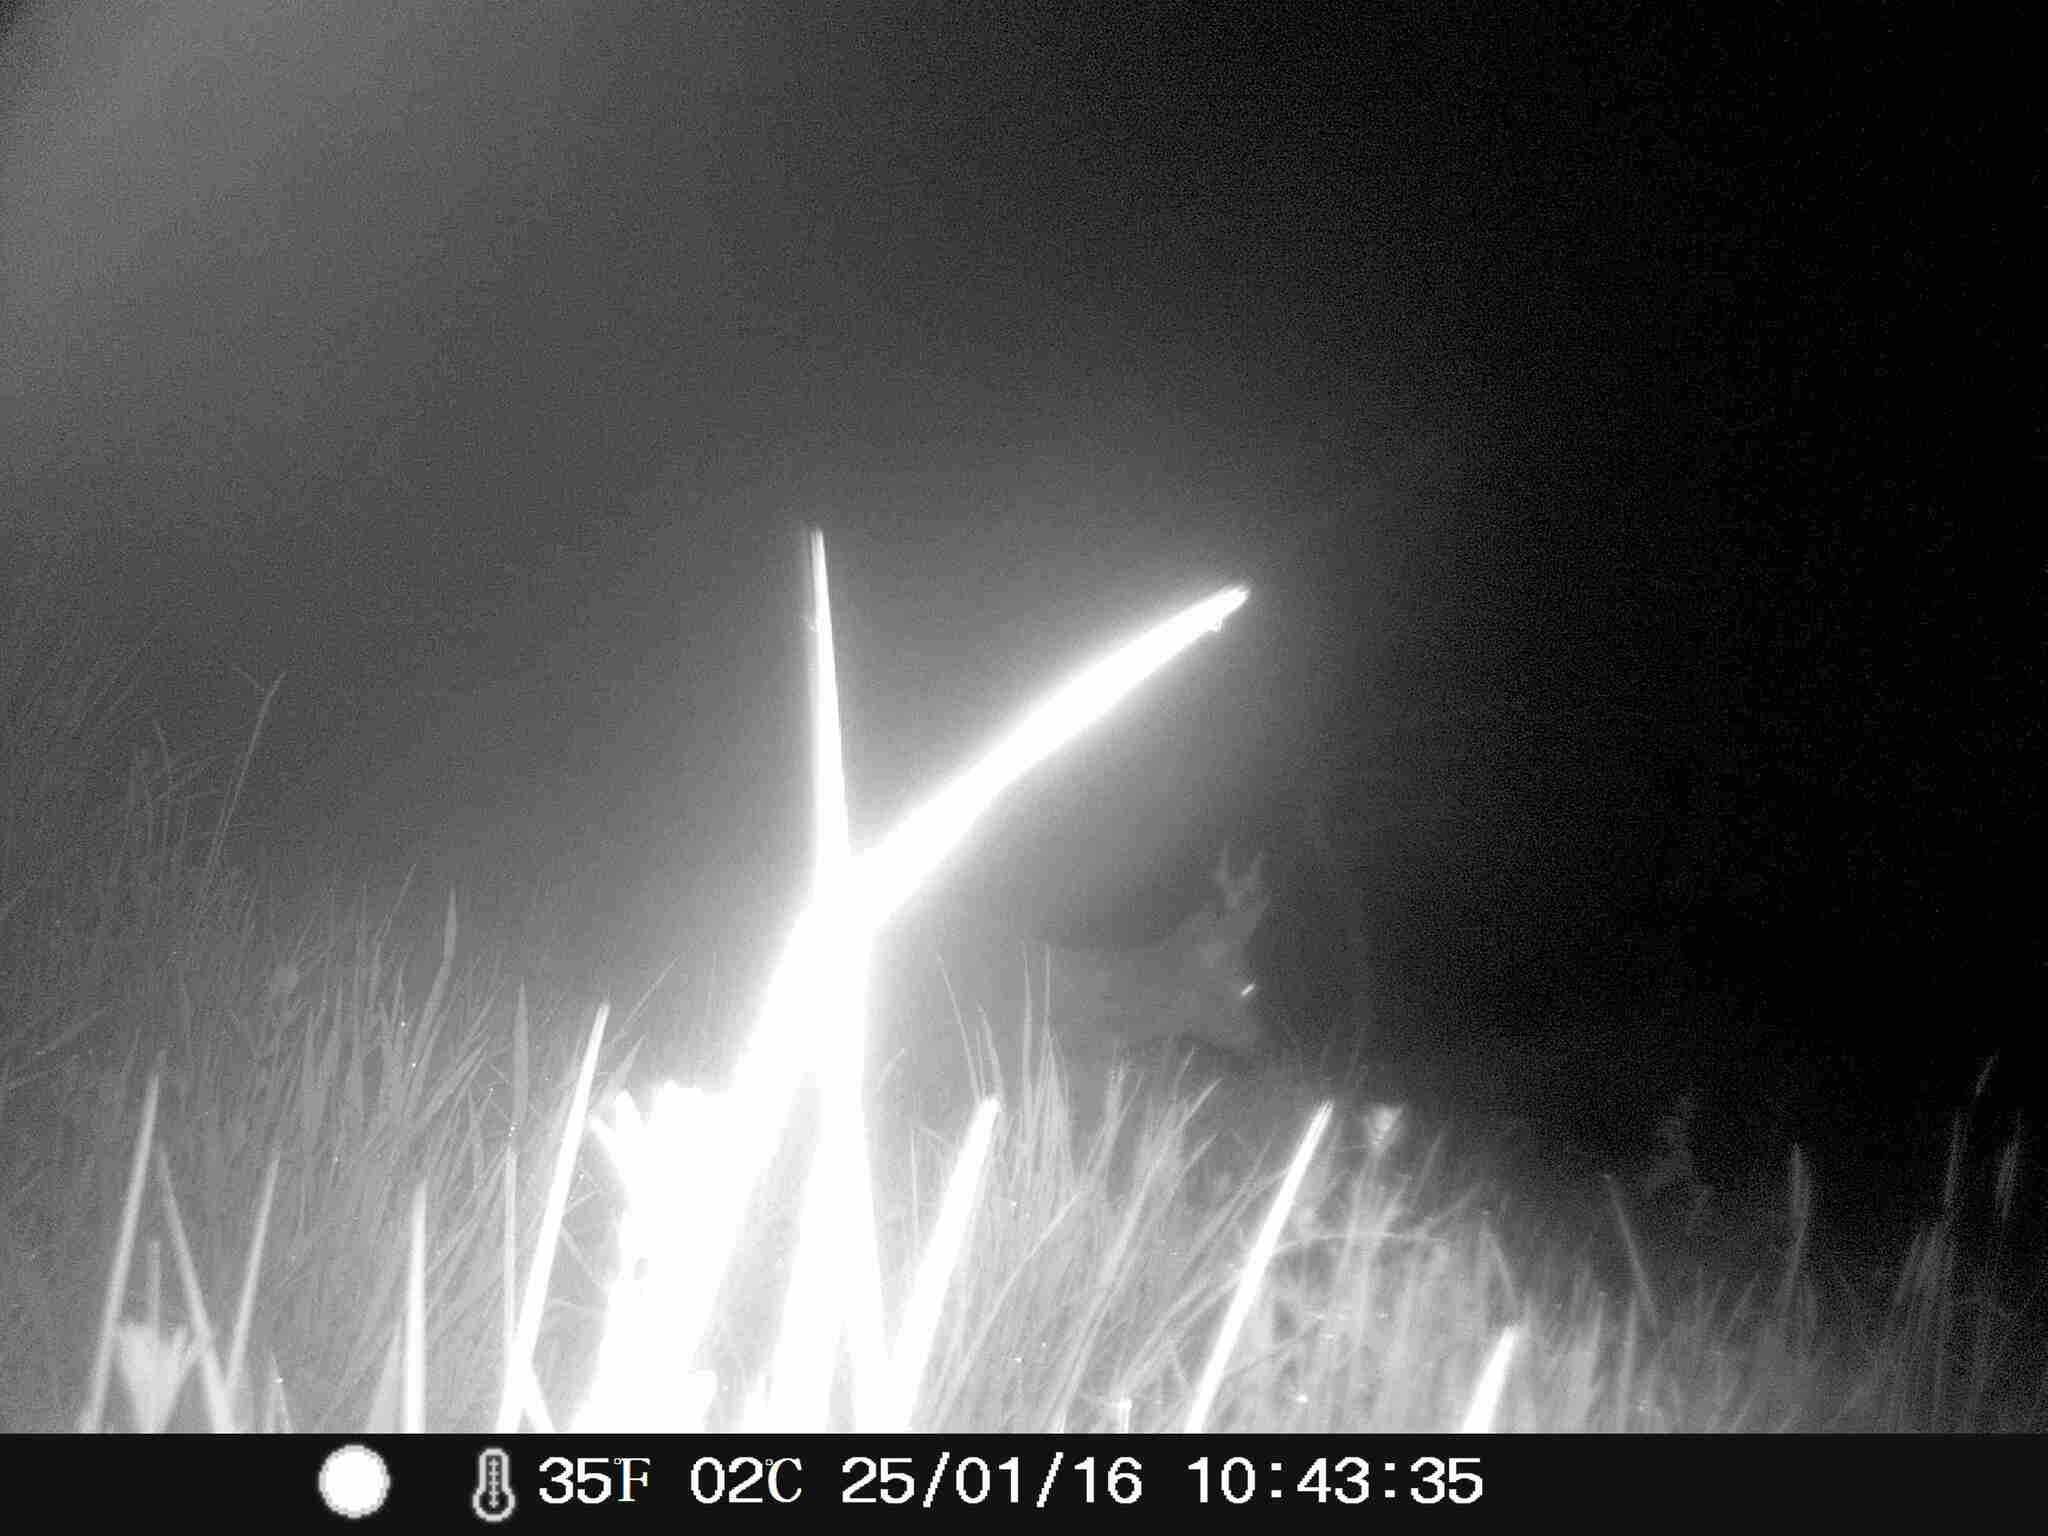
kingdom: Animalia
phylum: Chordata
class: Mammalia
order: Artiodactyla
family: Cervidae
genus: Capreolus
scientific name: Capreolus capreolus
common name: Western roe deer
